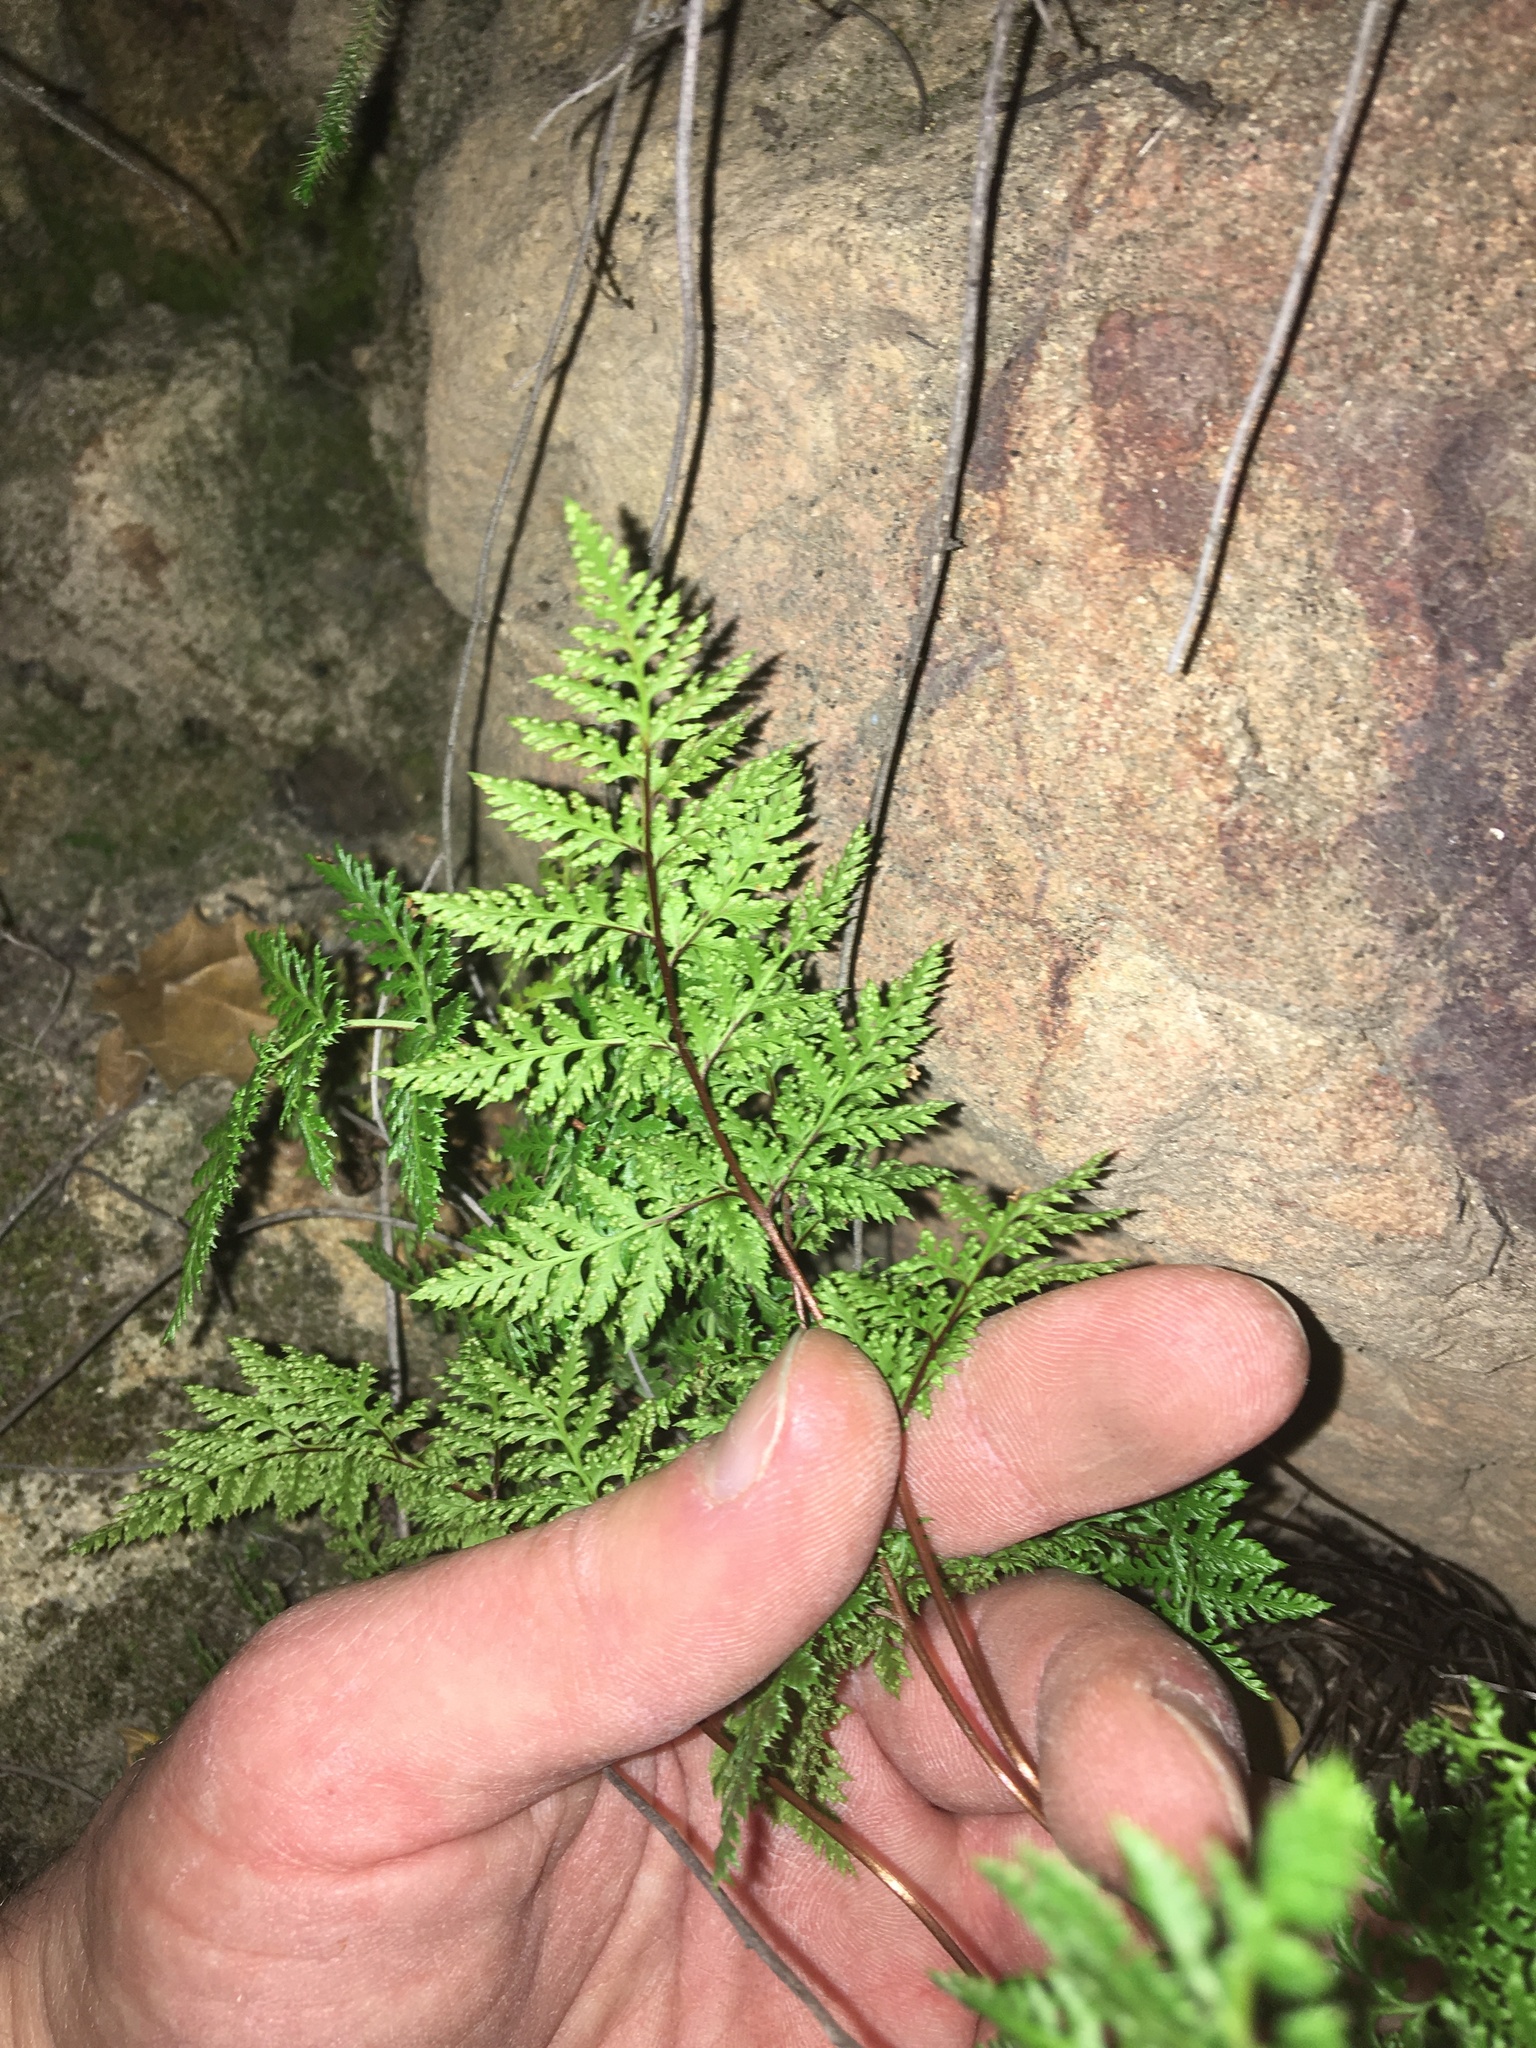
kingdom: Plantae
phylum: Tracheophyta
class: Polypodiopsida
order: Polypodiales
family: Pteridaceae
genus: Aspidotis
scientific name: Aspidotis californica
